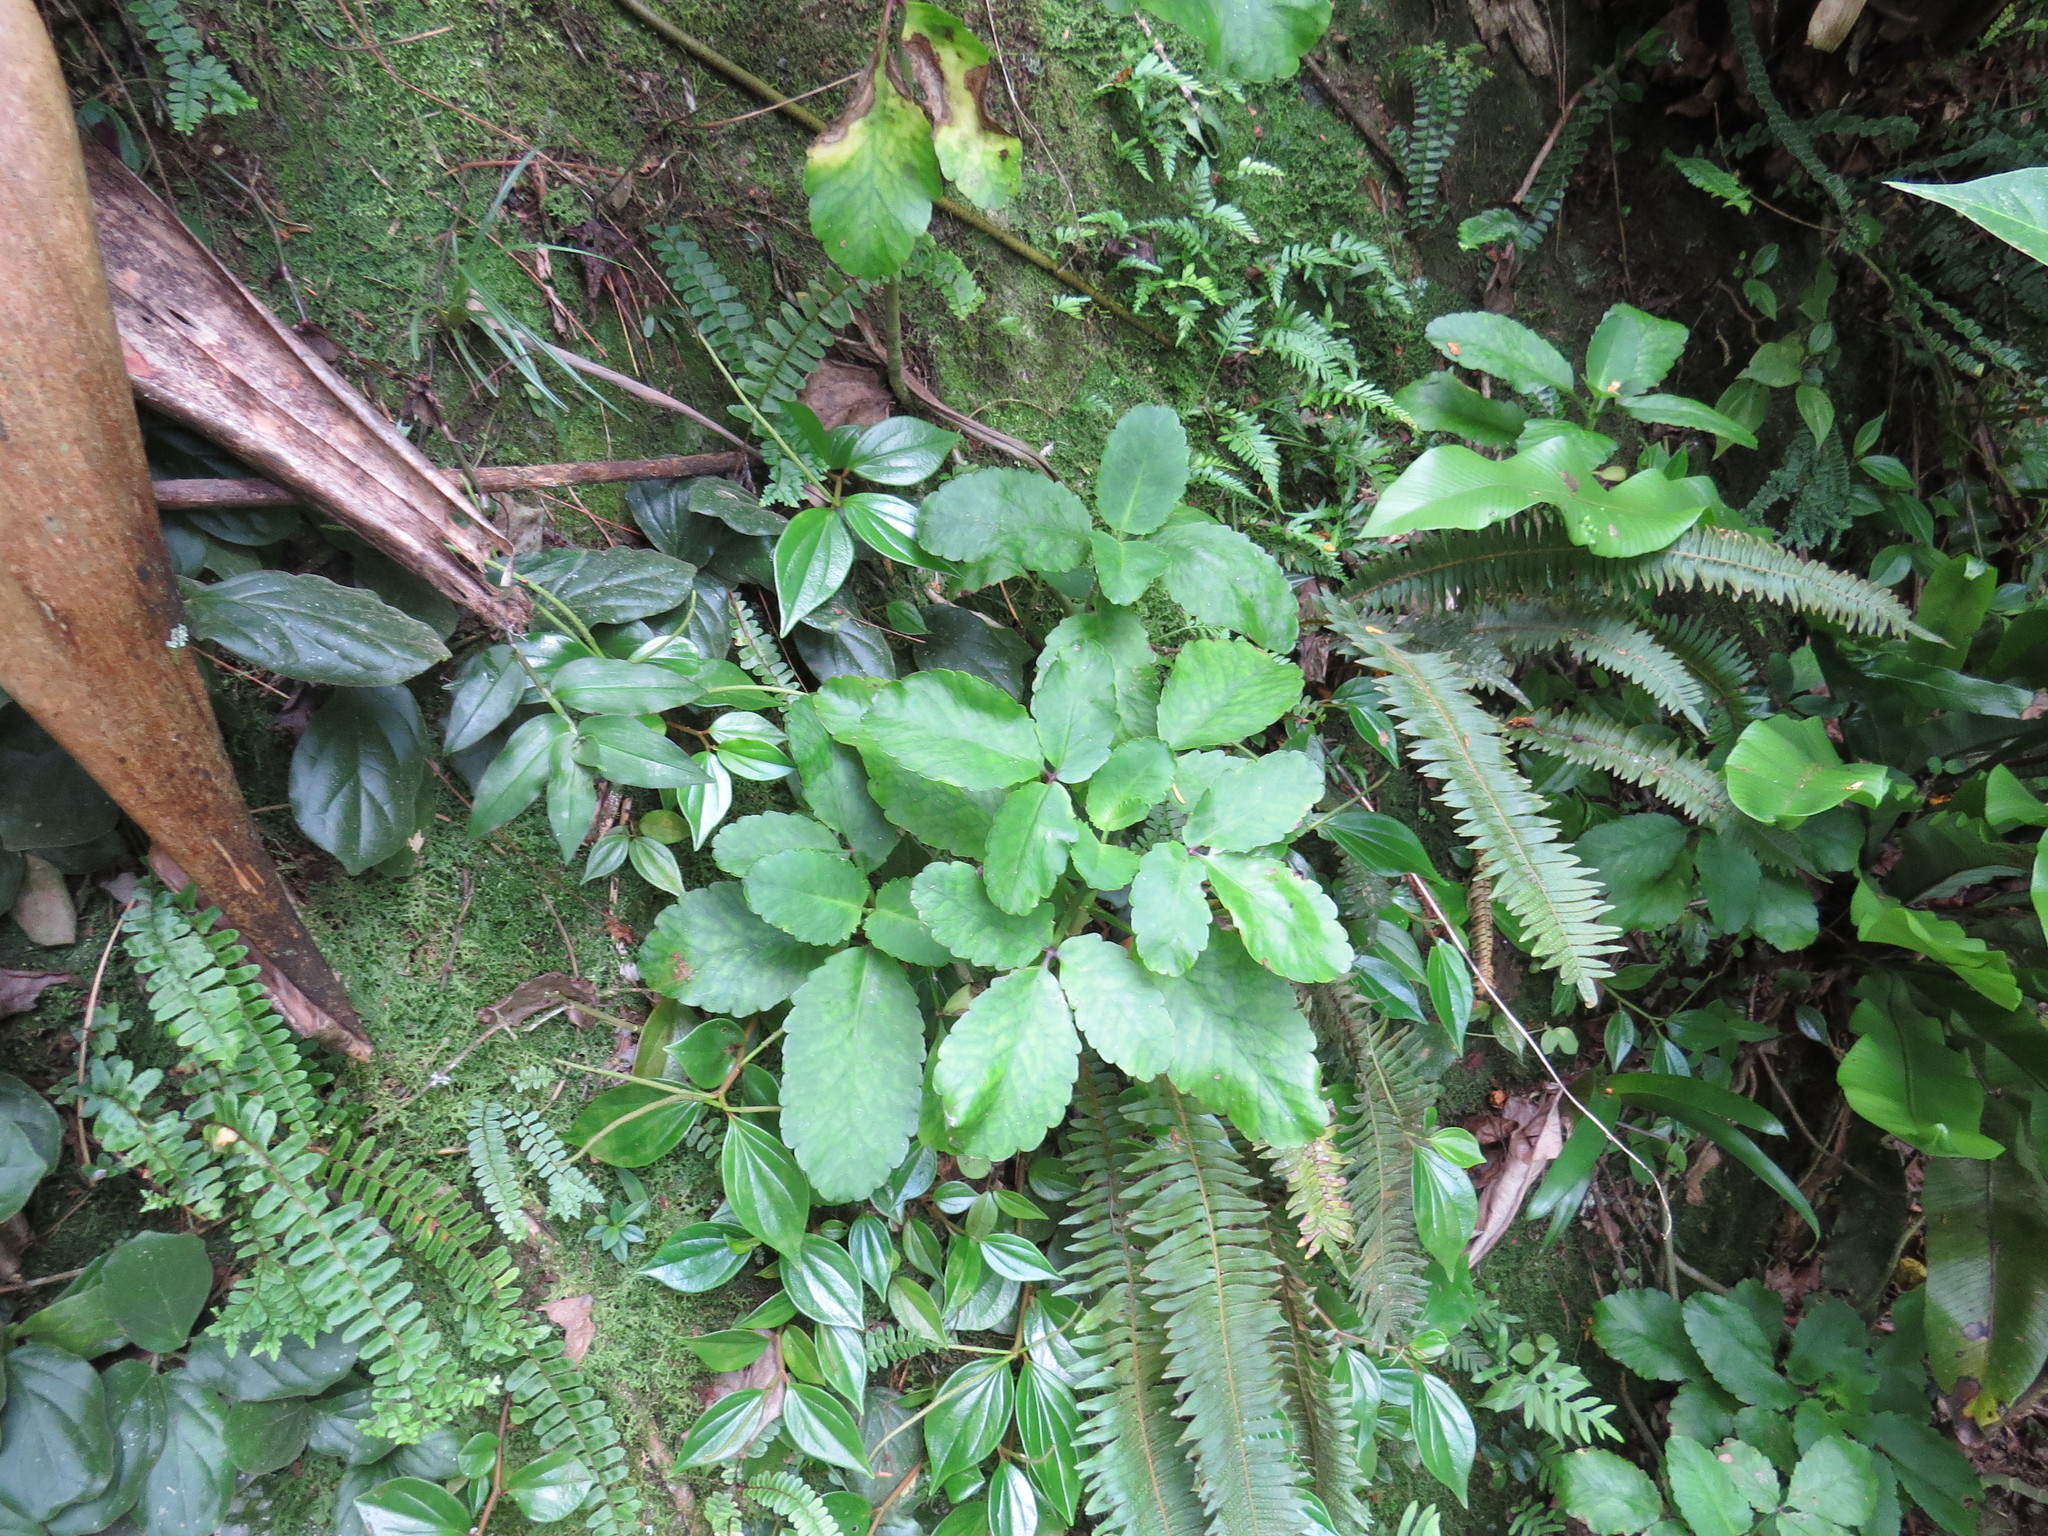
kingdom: Plantae
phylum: Tracheophyta
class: Magnoliopsida
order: Saxifragales
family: Crassulaceae
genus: Kalanchoe
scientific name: Kalanchoe pinnata
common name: Cathedral bells
